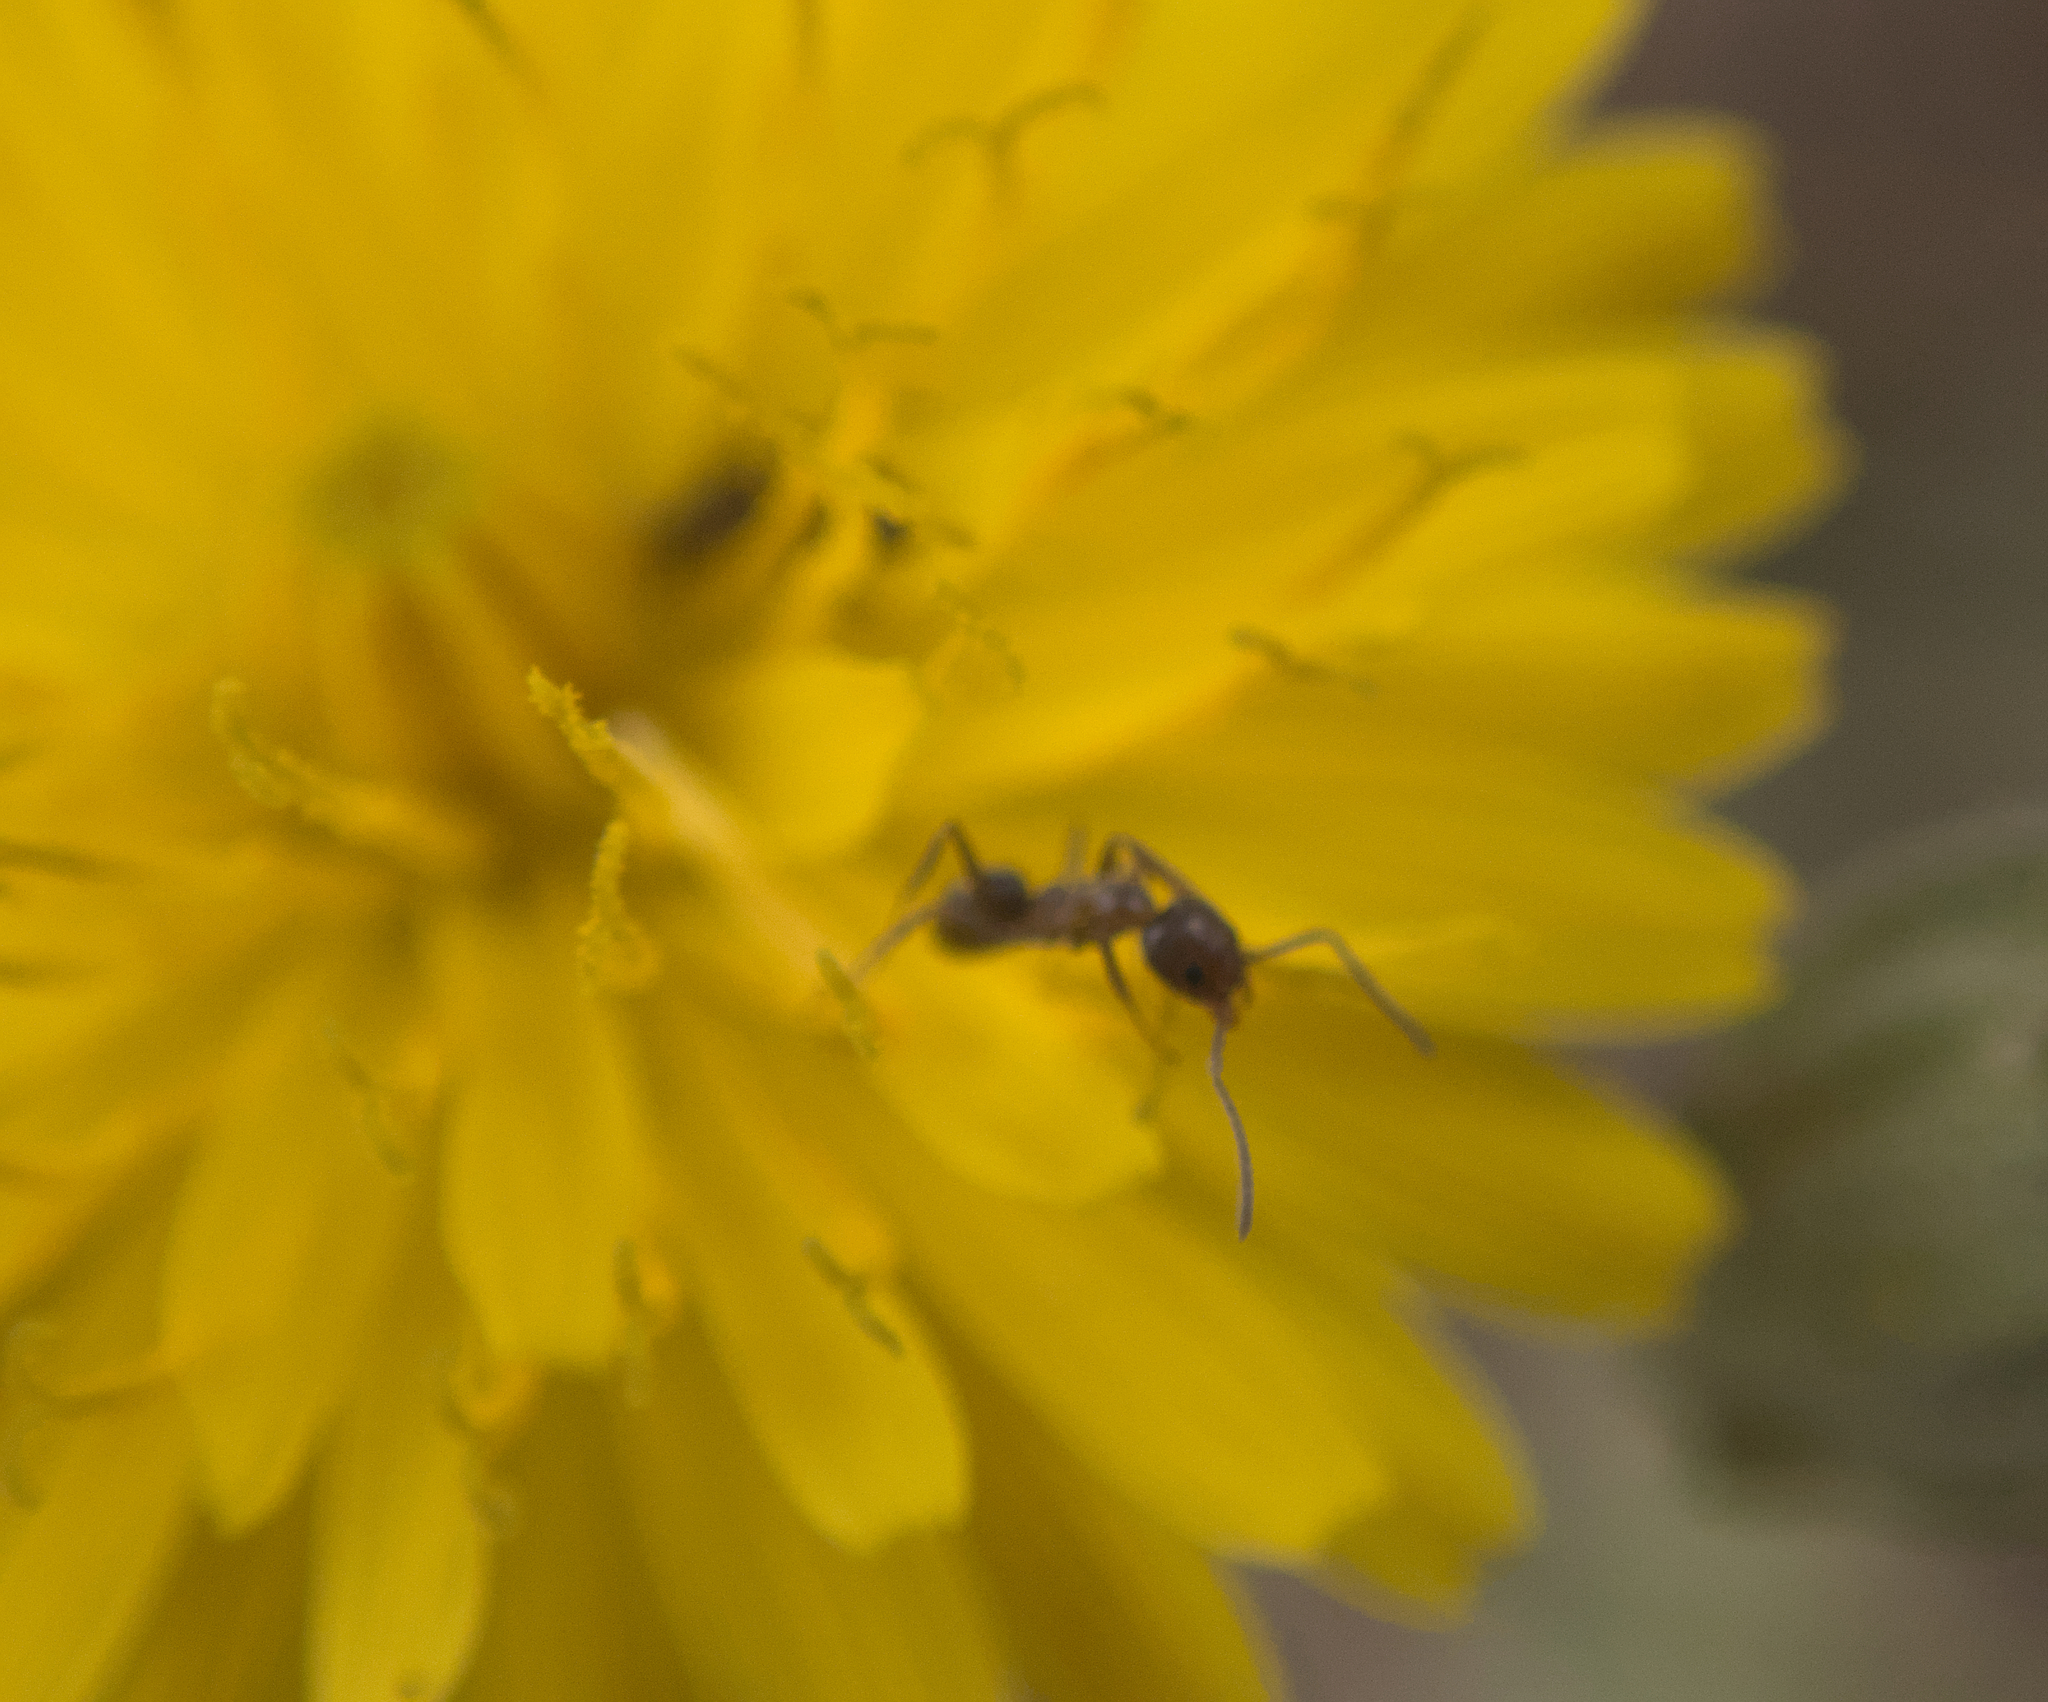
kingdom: Animalia
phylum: Arthropoda
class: Insecta
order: Hymenoptera
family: Formicidae
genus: Linepithema
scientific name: Linepithema humile
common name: Argentine ant
